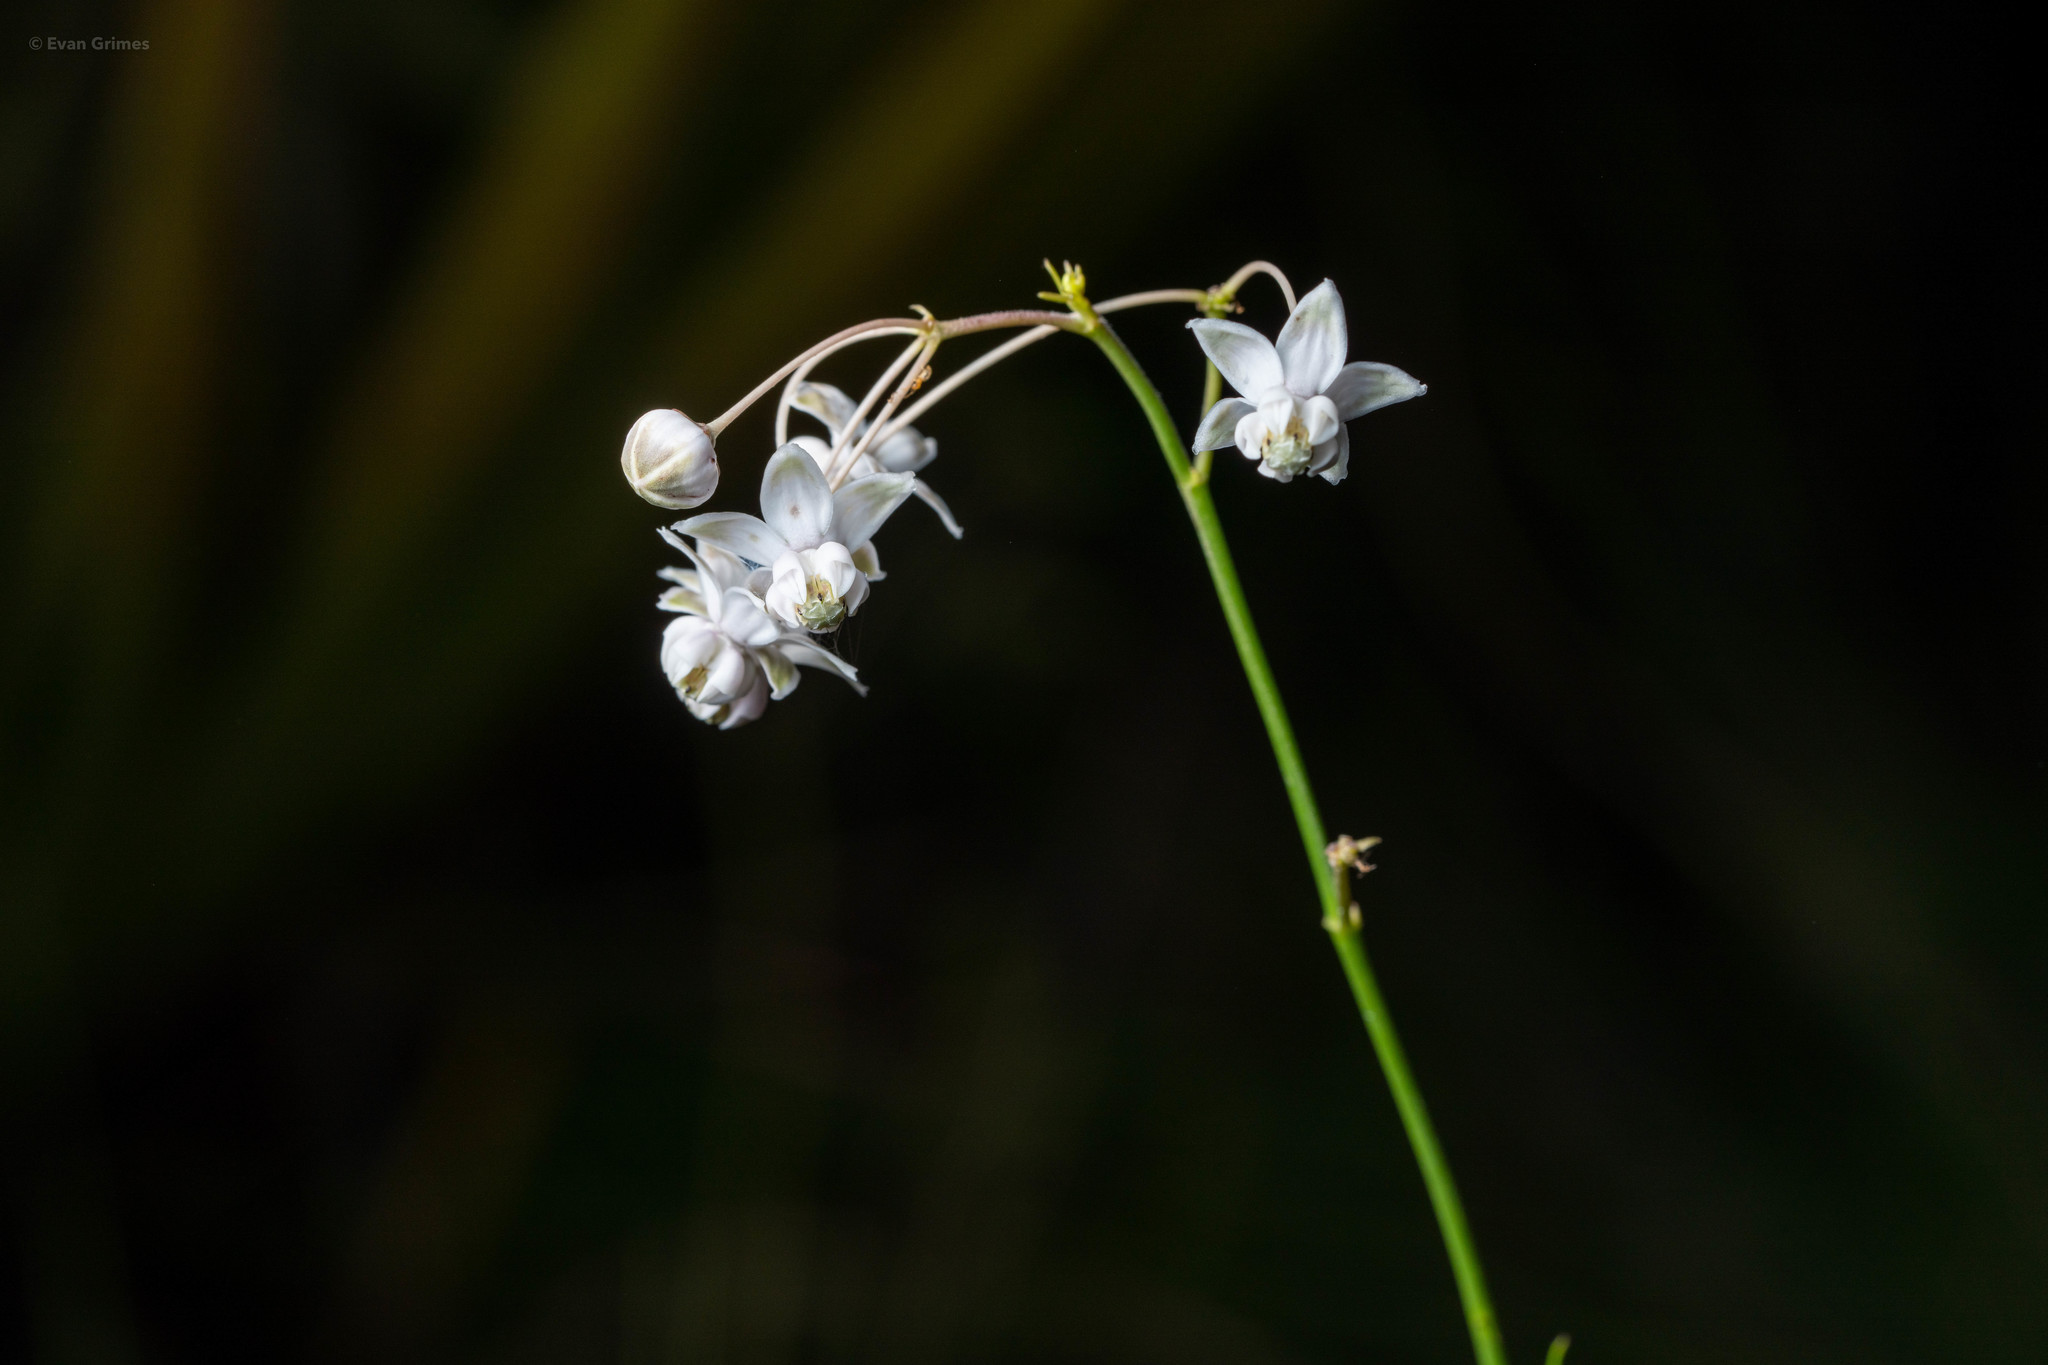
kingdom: Plantae
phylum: Tracheophyta
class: Magnoliopsida
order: Gentianales
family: Apocynaceae
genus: Asclepias
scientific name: Asclepias cinerea
